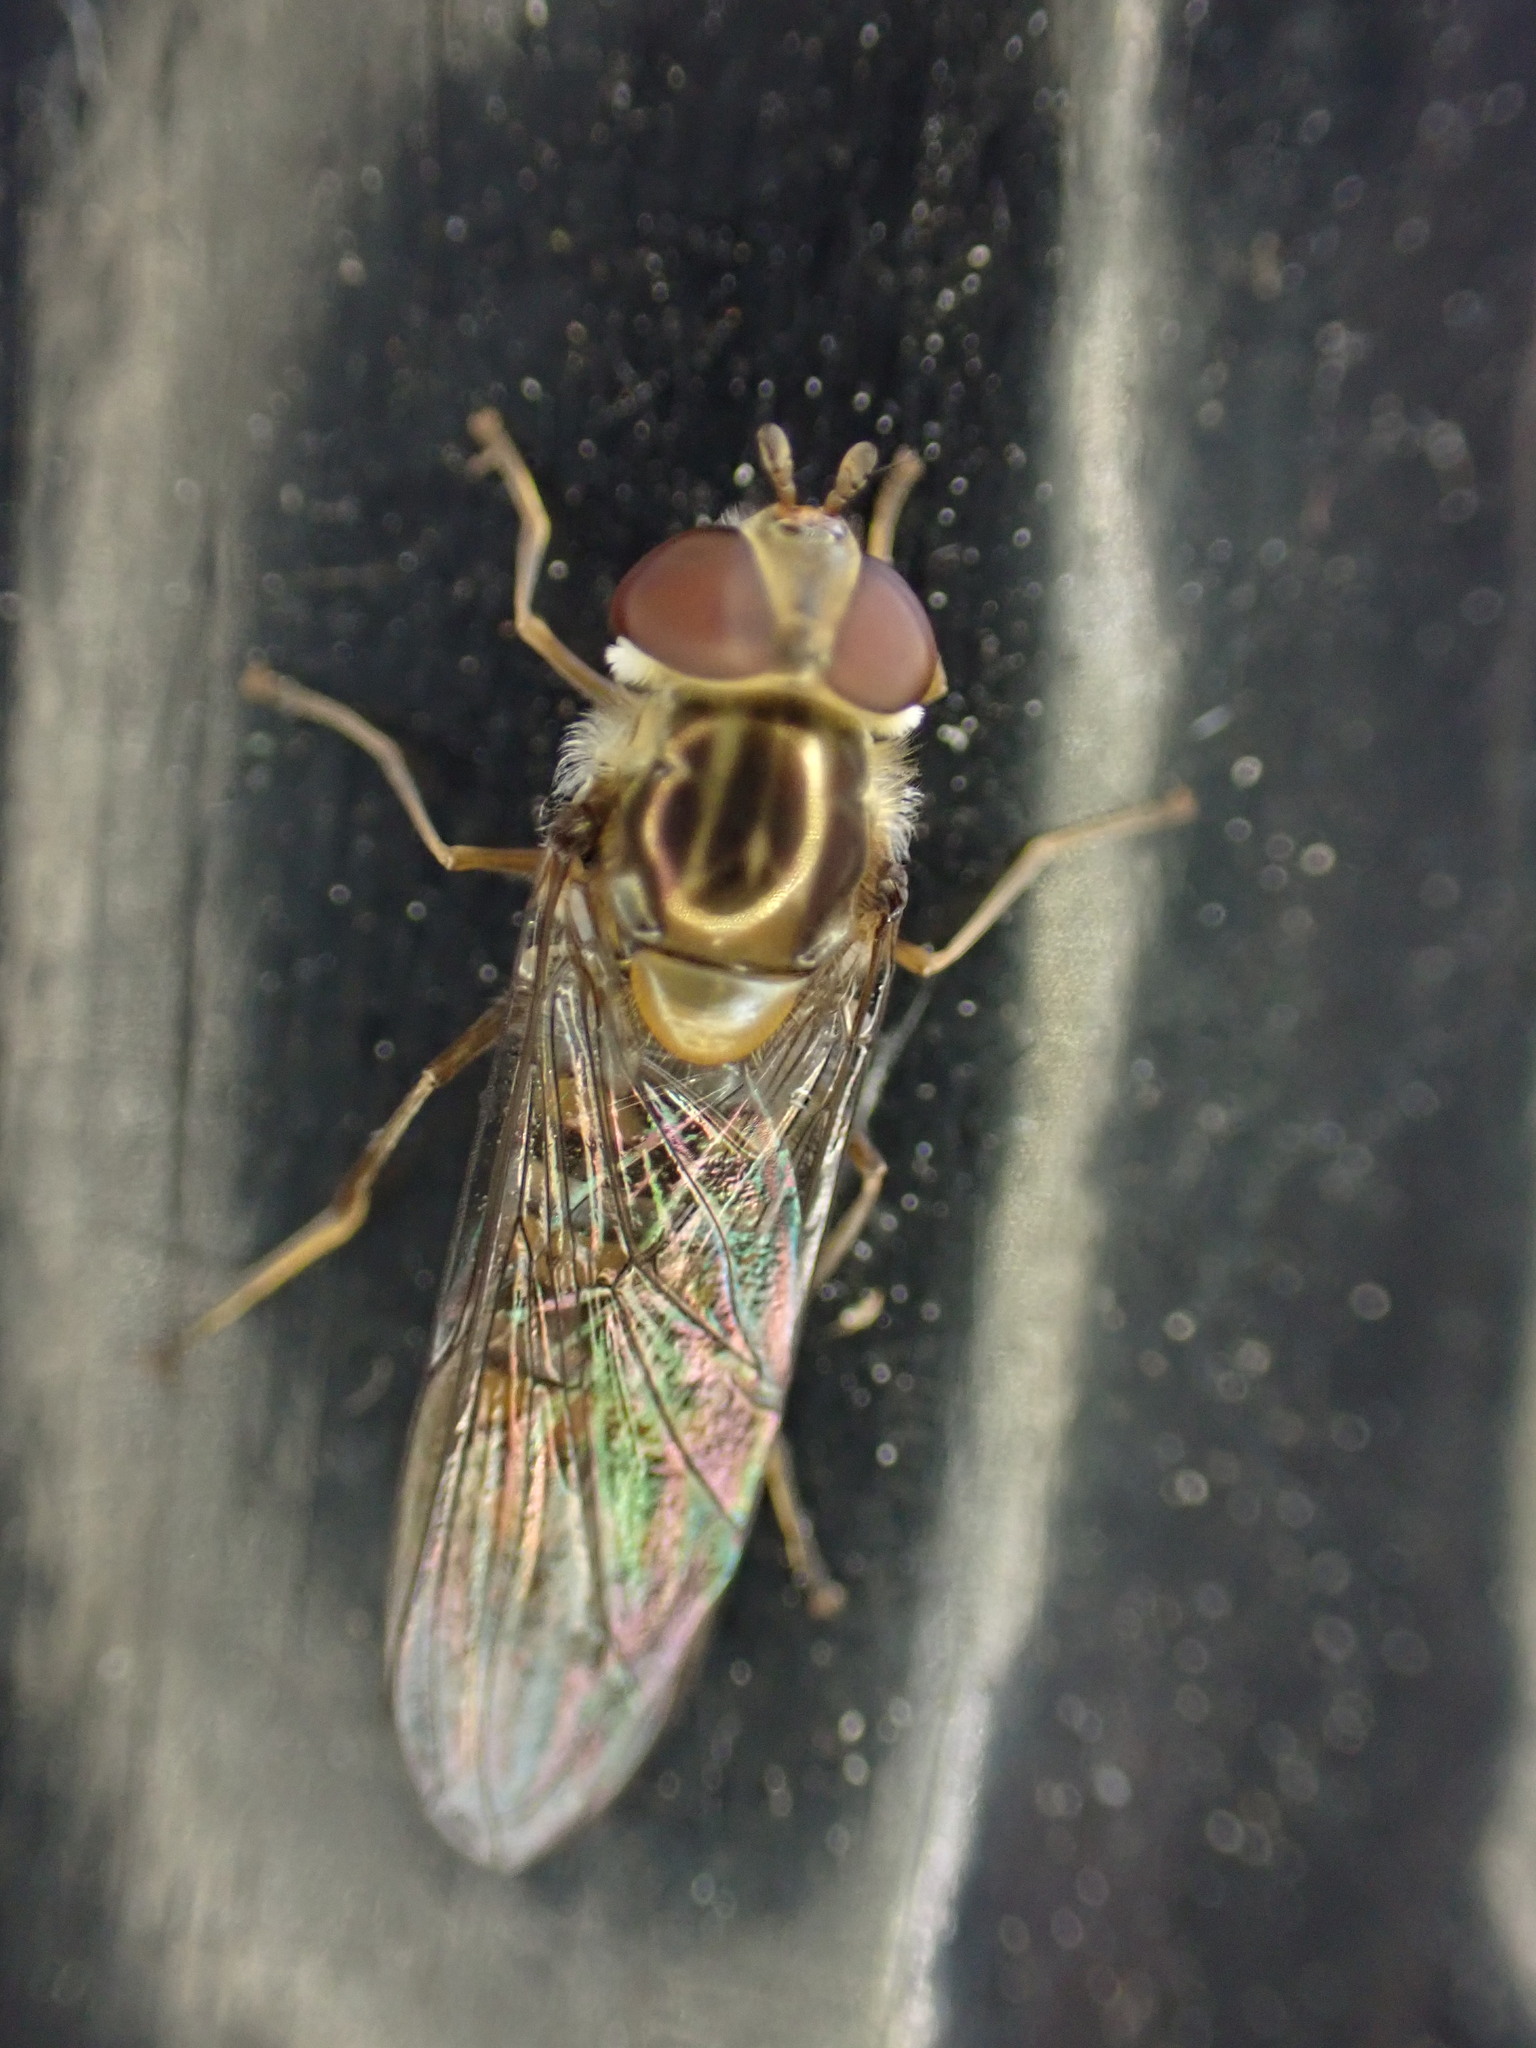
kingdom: Animalia
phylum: Arthropoda
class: Insecta
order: Diptera
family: Syrphidae
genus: Episyrphus
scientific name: Episyrphus balteatus
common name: Marmalade hoverfly
